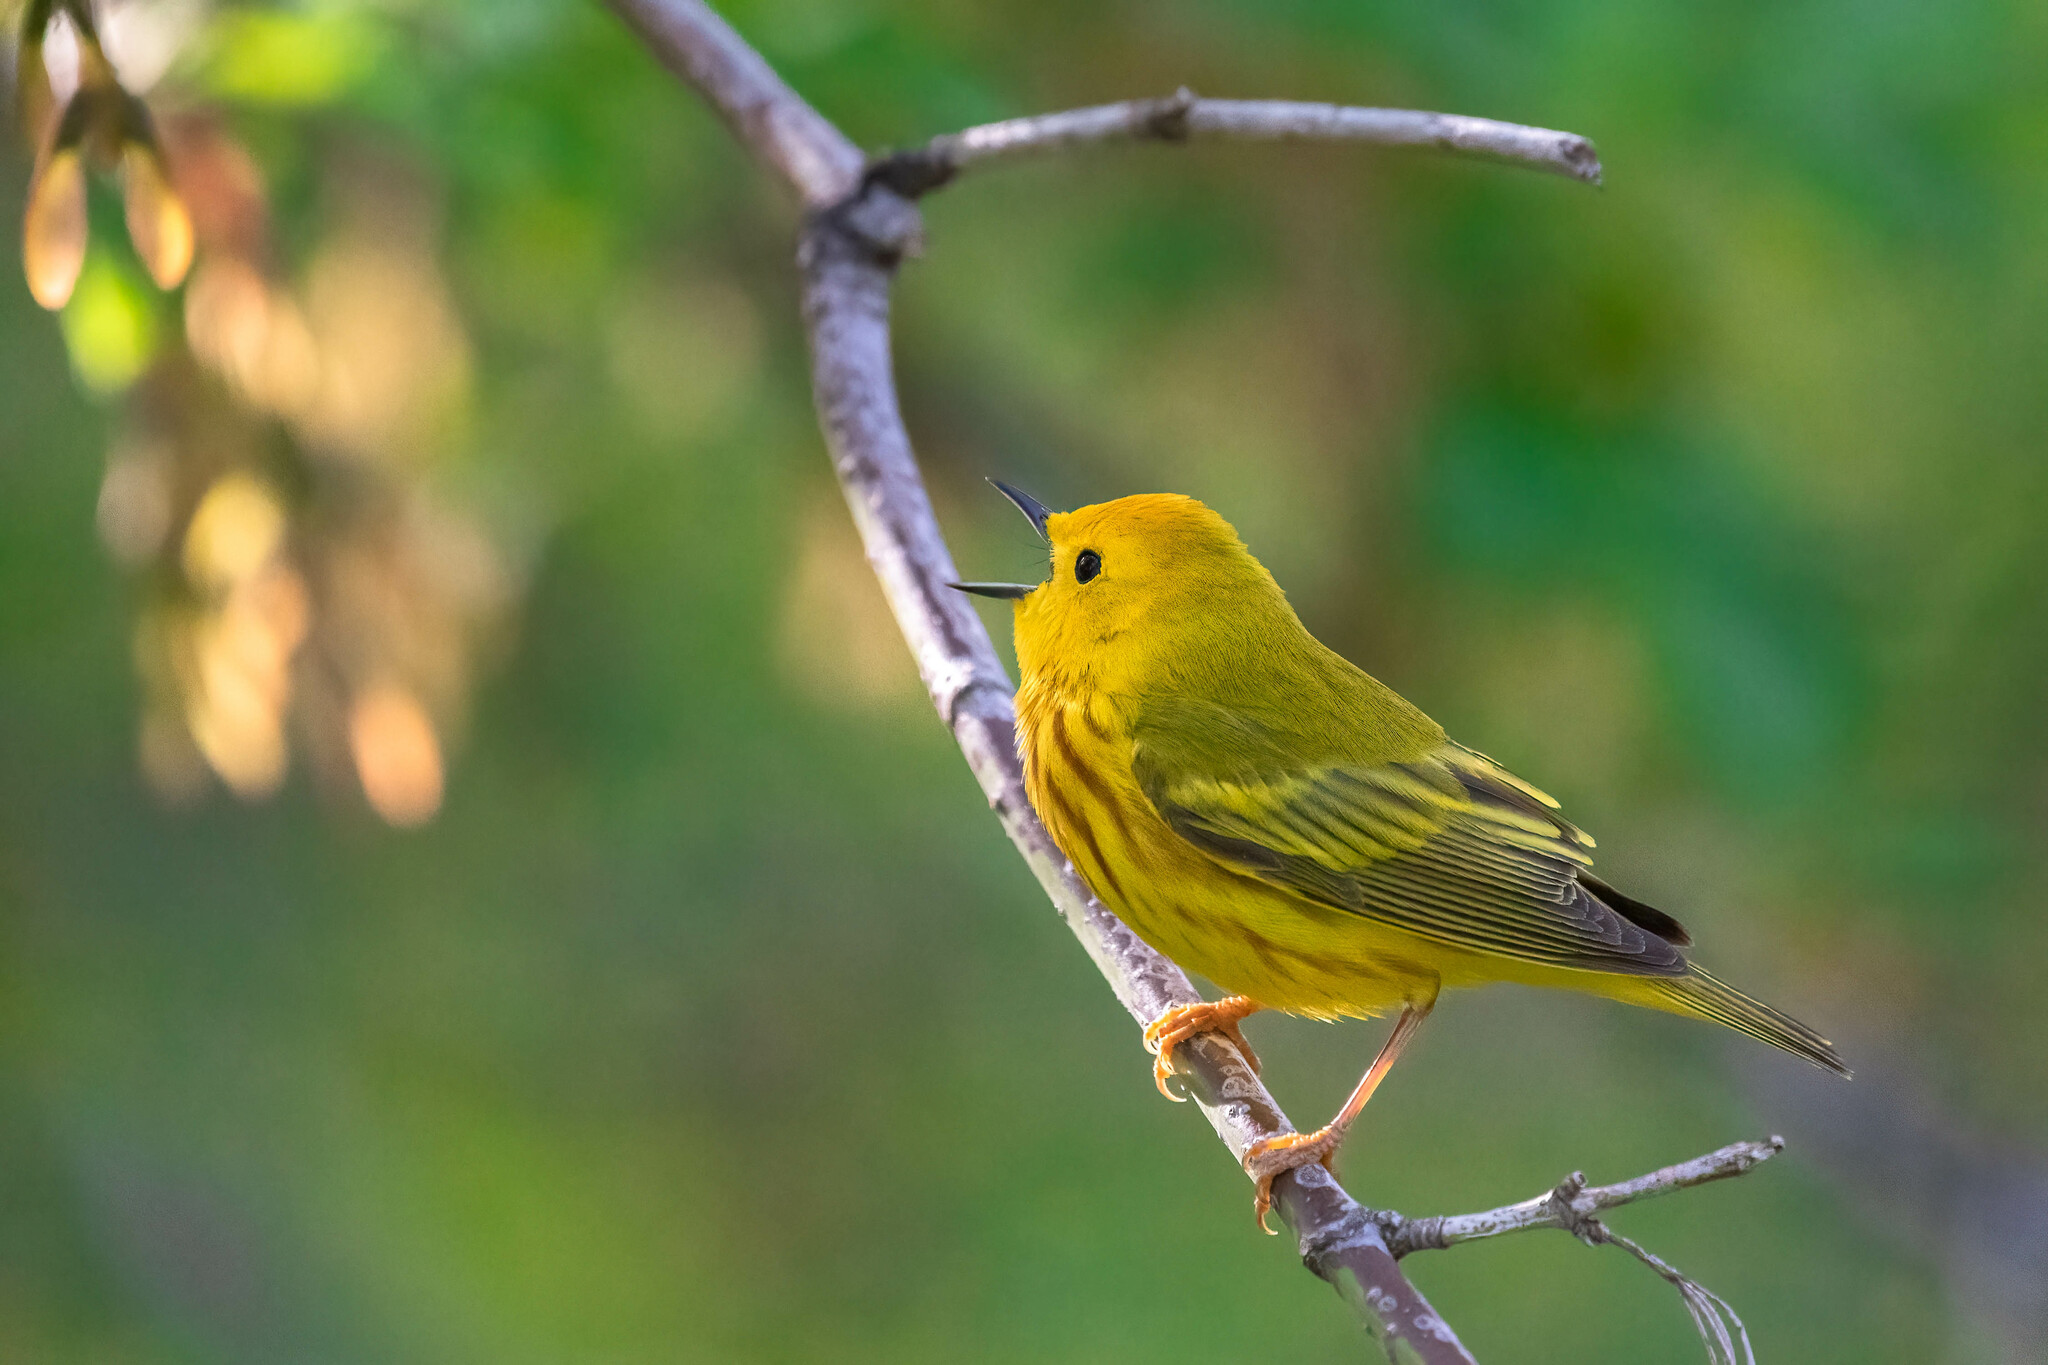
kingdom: Animalia
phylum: Chordata
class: Aves
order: Passeriformes
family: Parulidae
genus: Setophaga
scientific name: Setophaga petechia
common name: Yellow warbler
